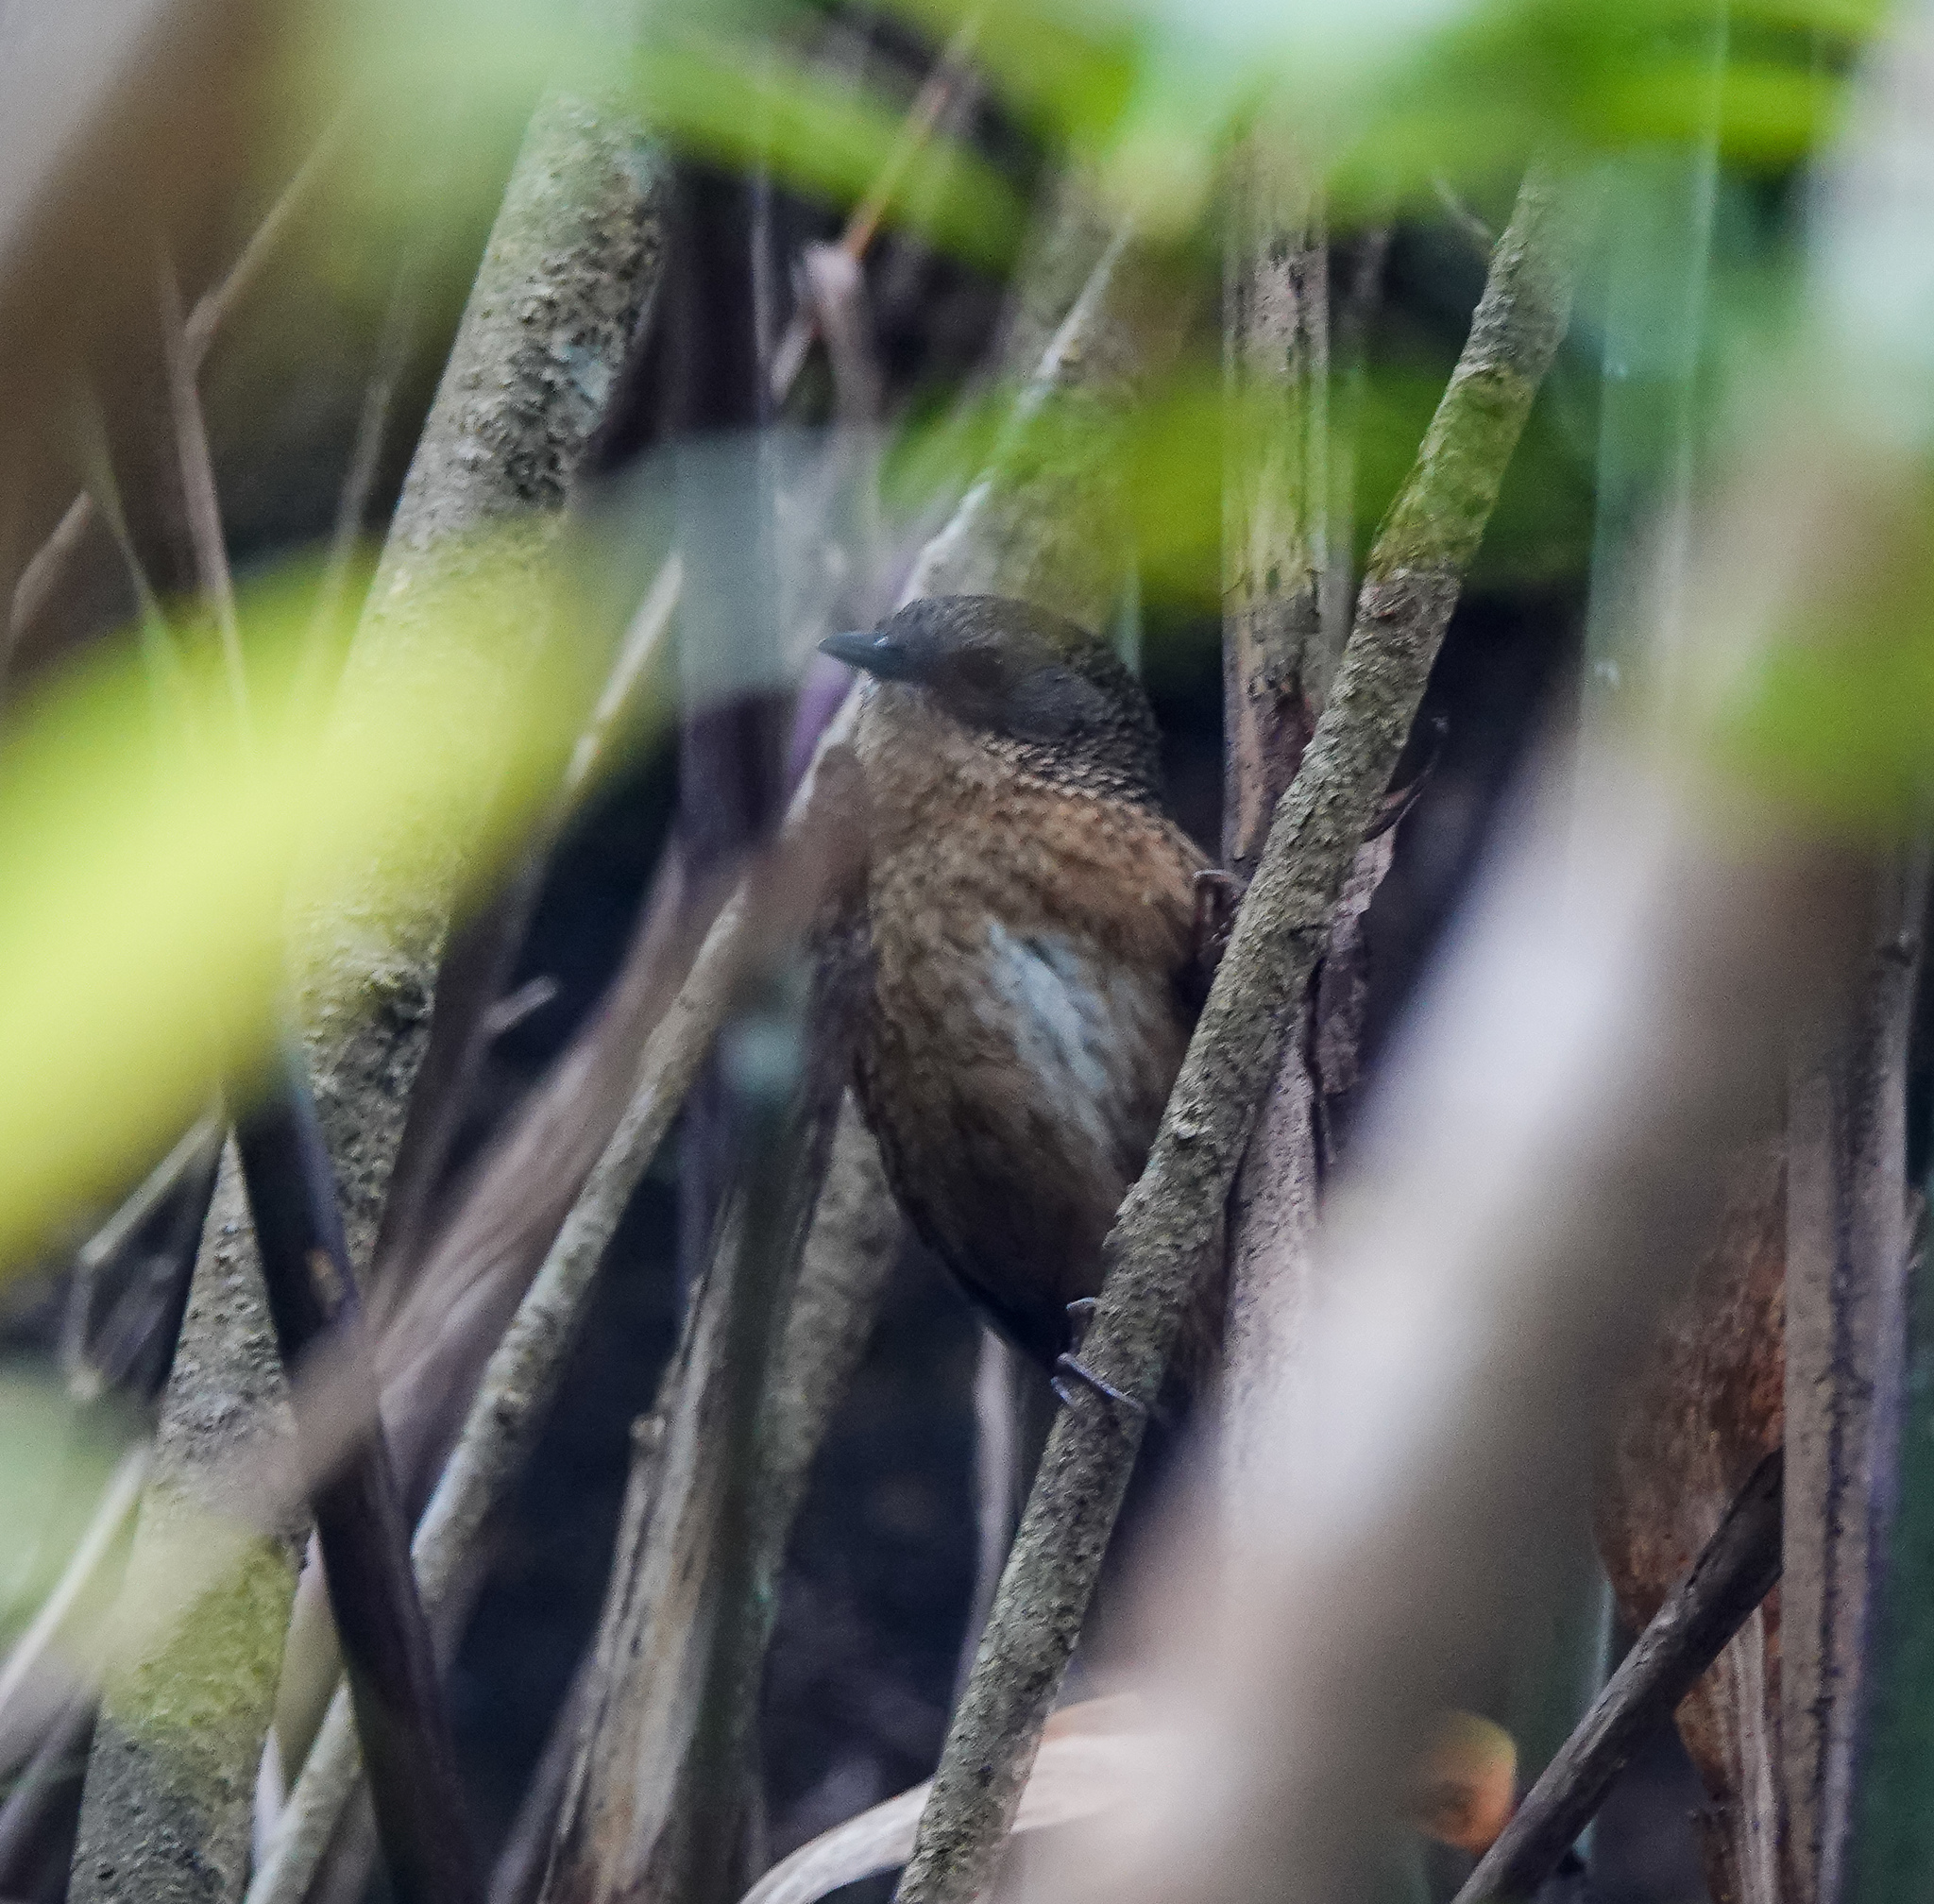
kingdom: Animalia
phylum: Chordata
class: Aves
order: Passeriformes
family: Timaliidae
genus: Spelaeornis
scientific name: Spelaeornis longicaudatus
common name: Tawny-breasted wren-babbler
